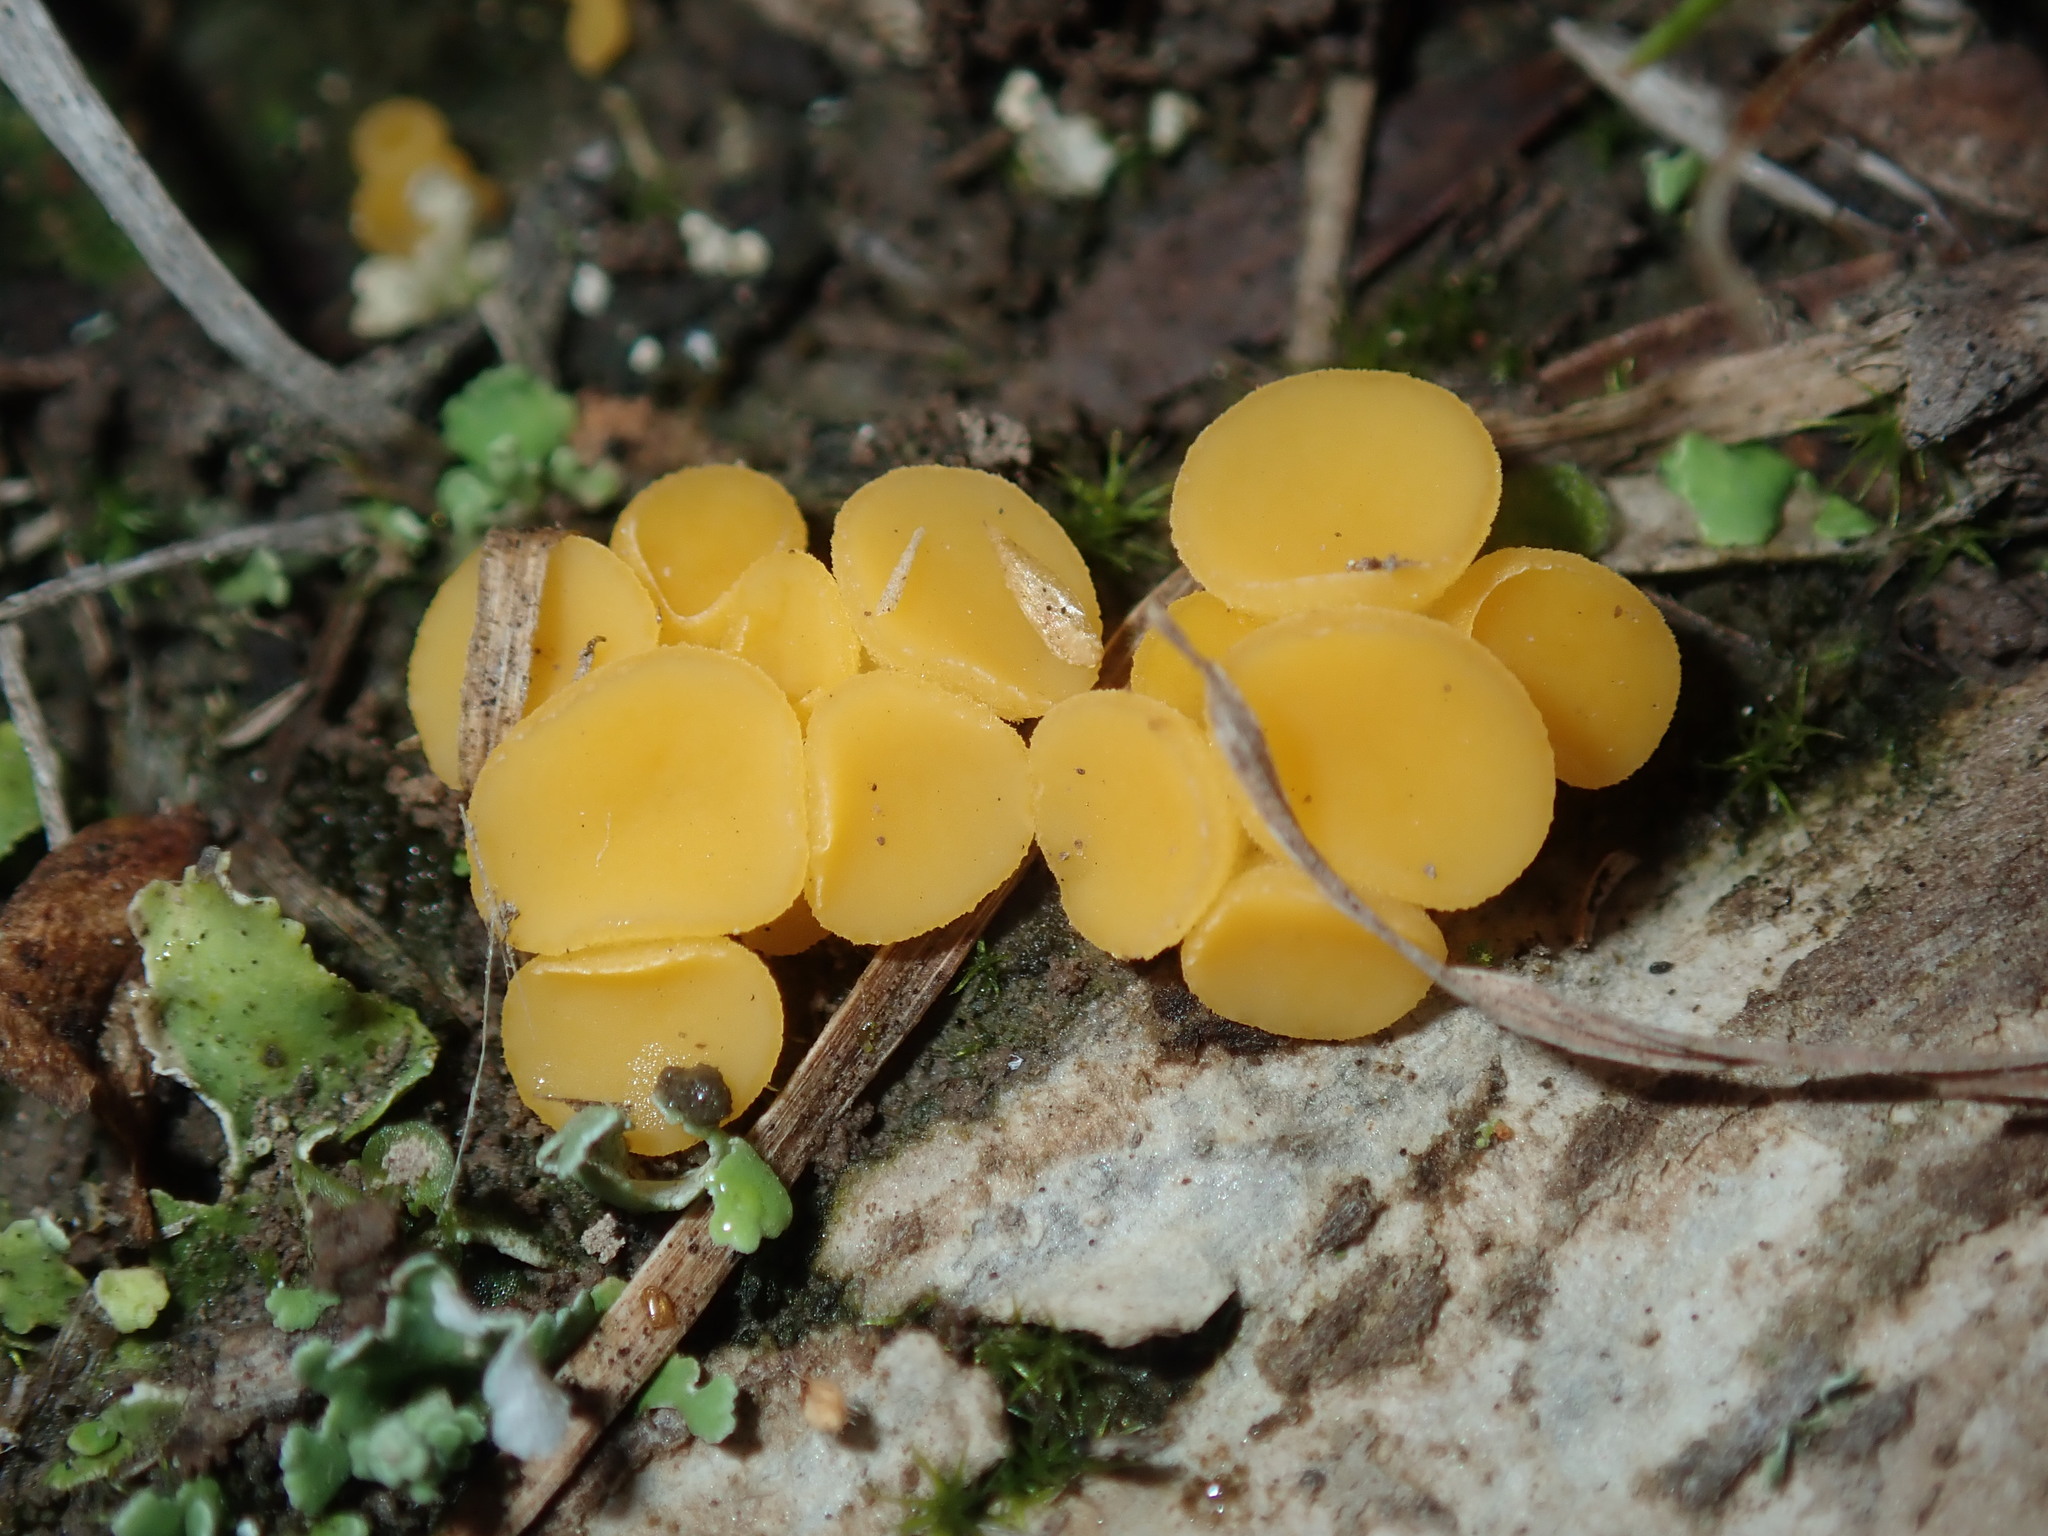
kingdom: Fungi
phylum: Ascomycota
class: Leotiomycetes
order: Helotiales
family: Helotiaceae
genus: Phaeohelotium
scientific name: Phaeohelotium baileyanum
